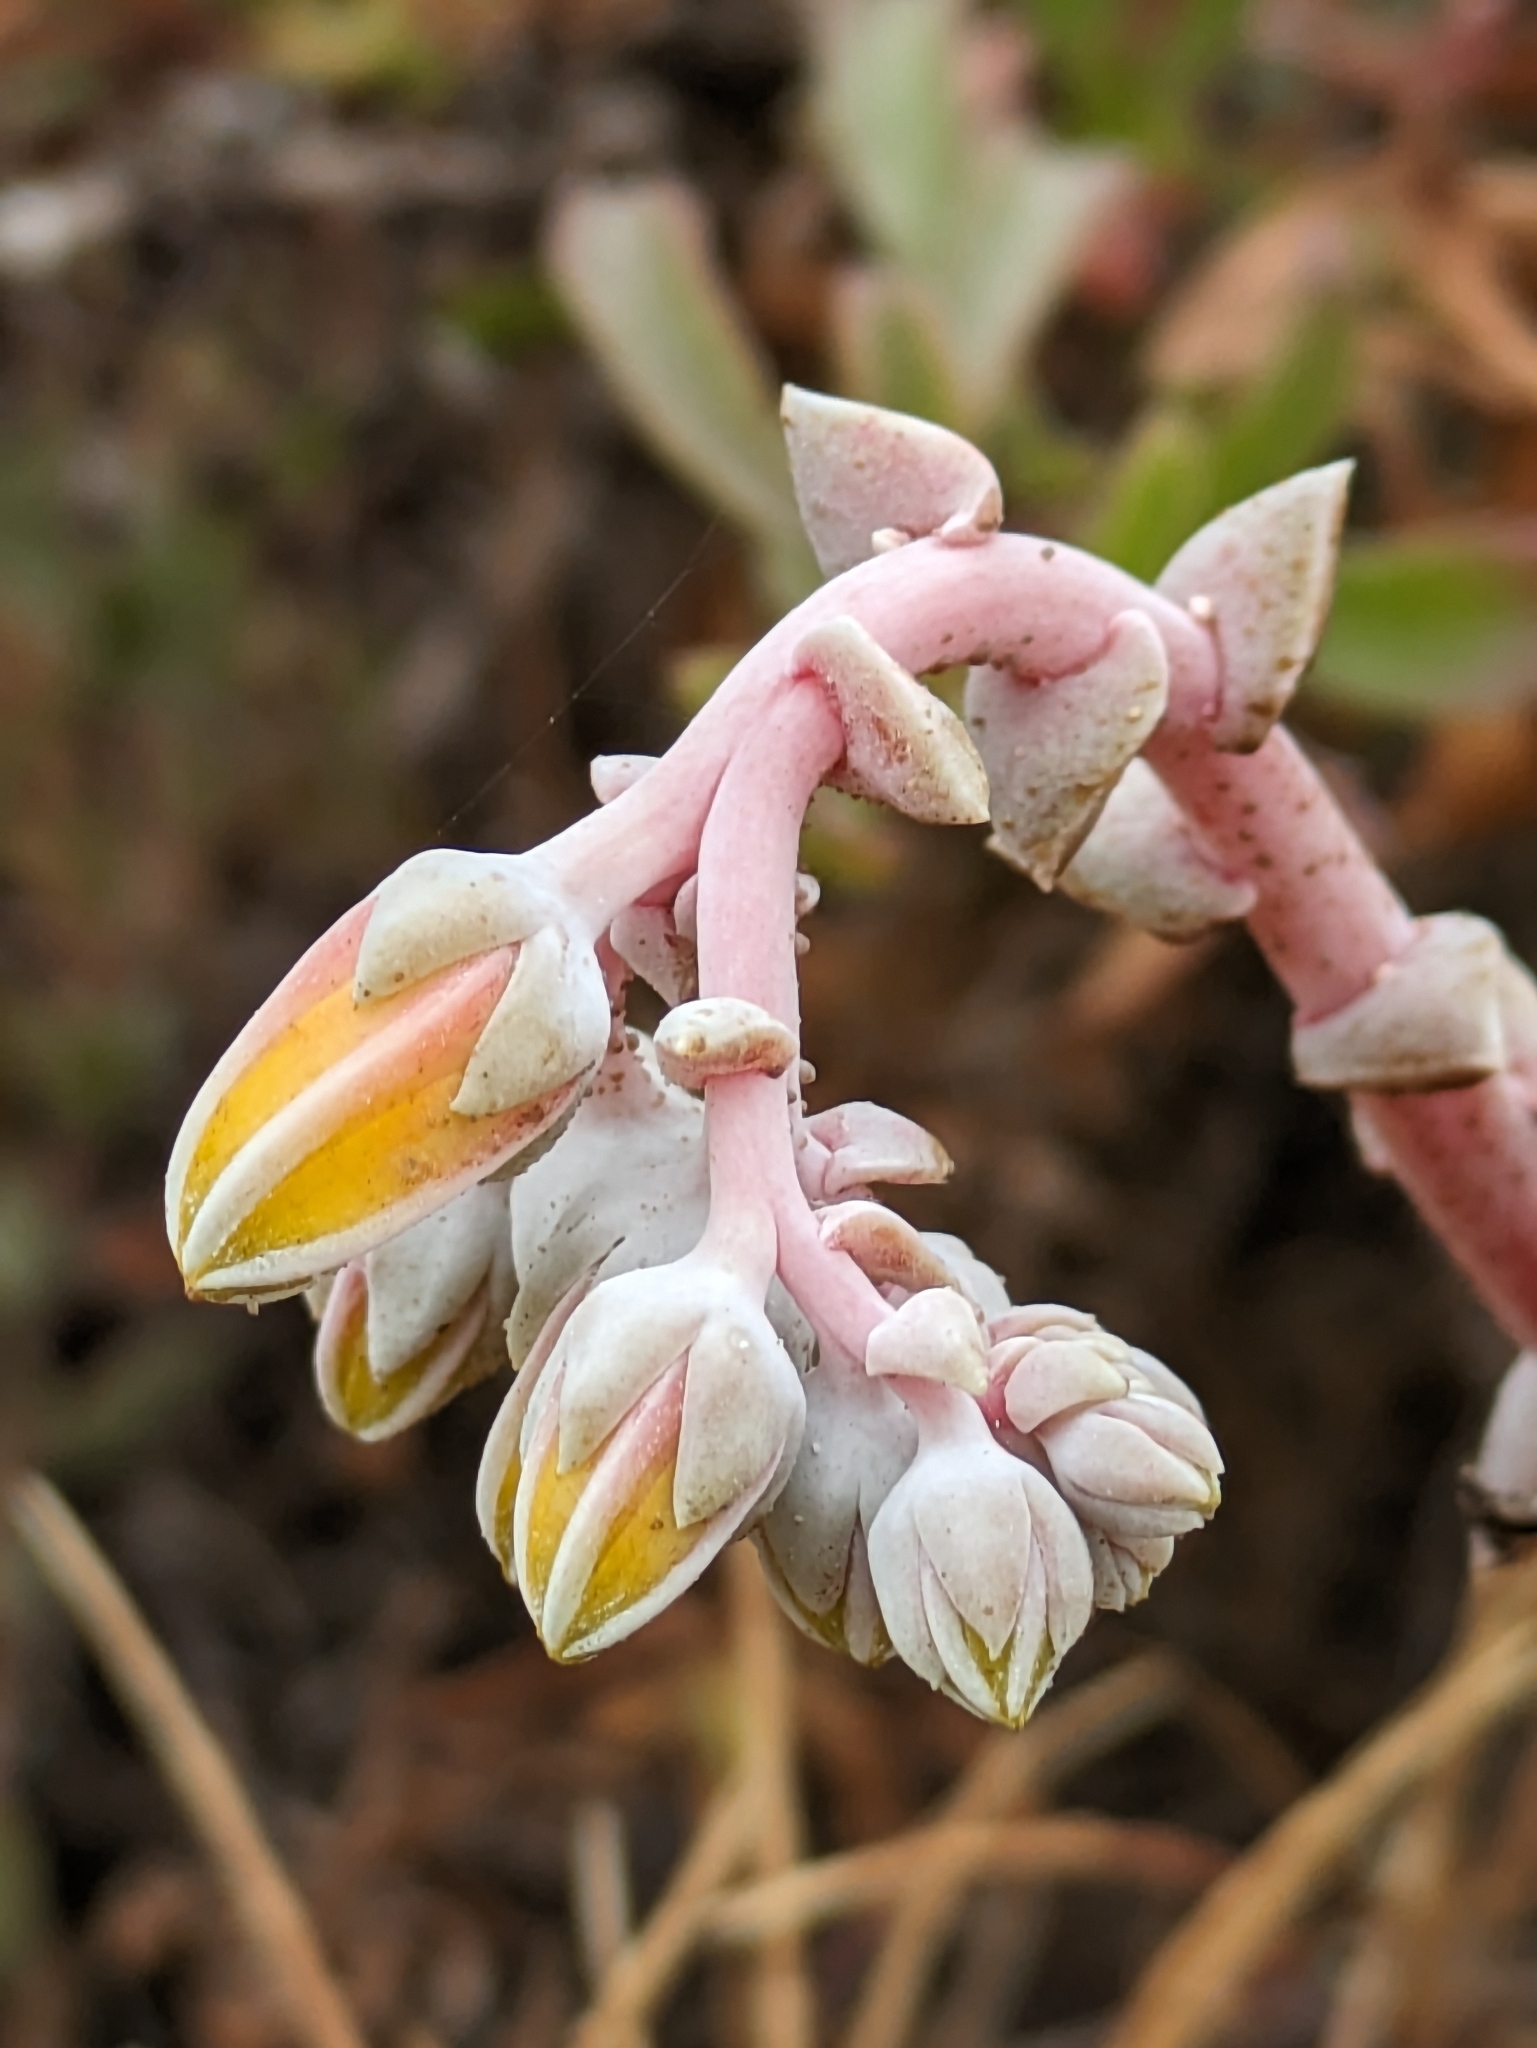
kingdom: Plantae
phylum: Tracheophyta
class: Magnoliopsida
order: Saxifragales
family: Crassulaceae
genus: Dudleya
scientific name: Dudleya caespitosa
